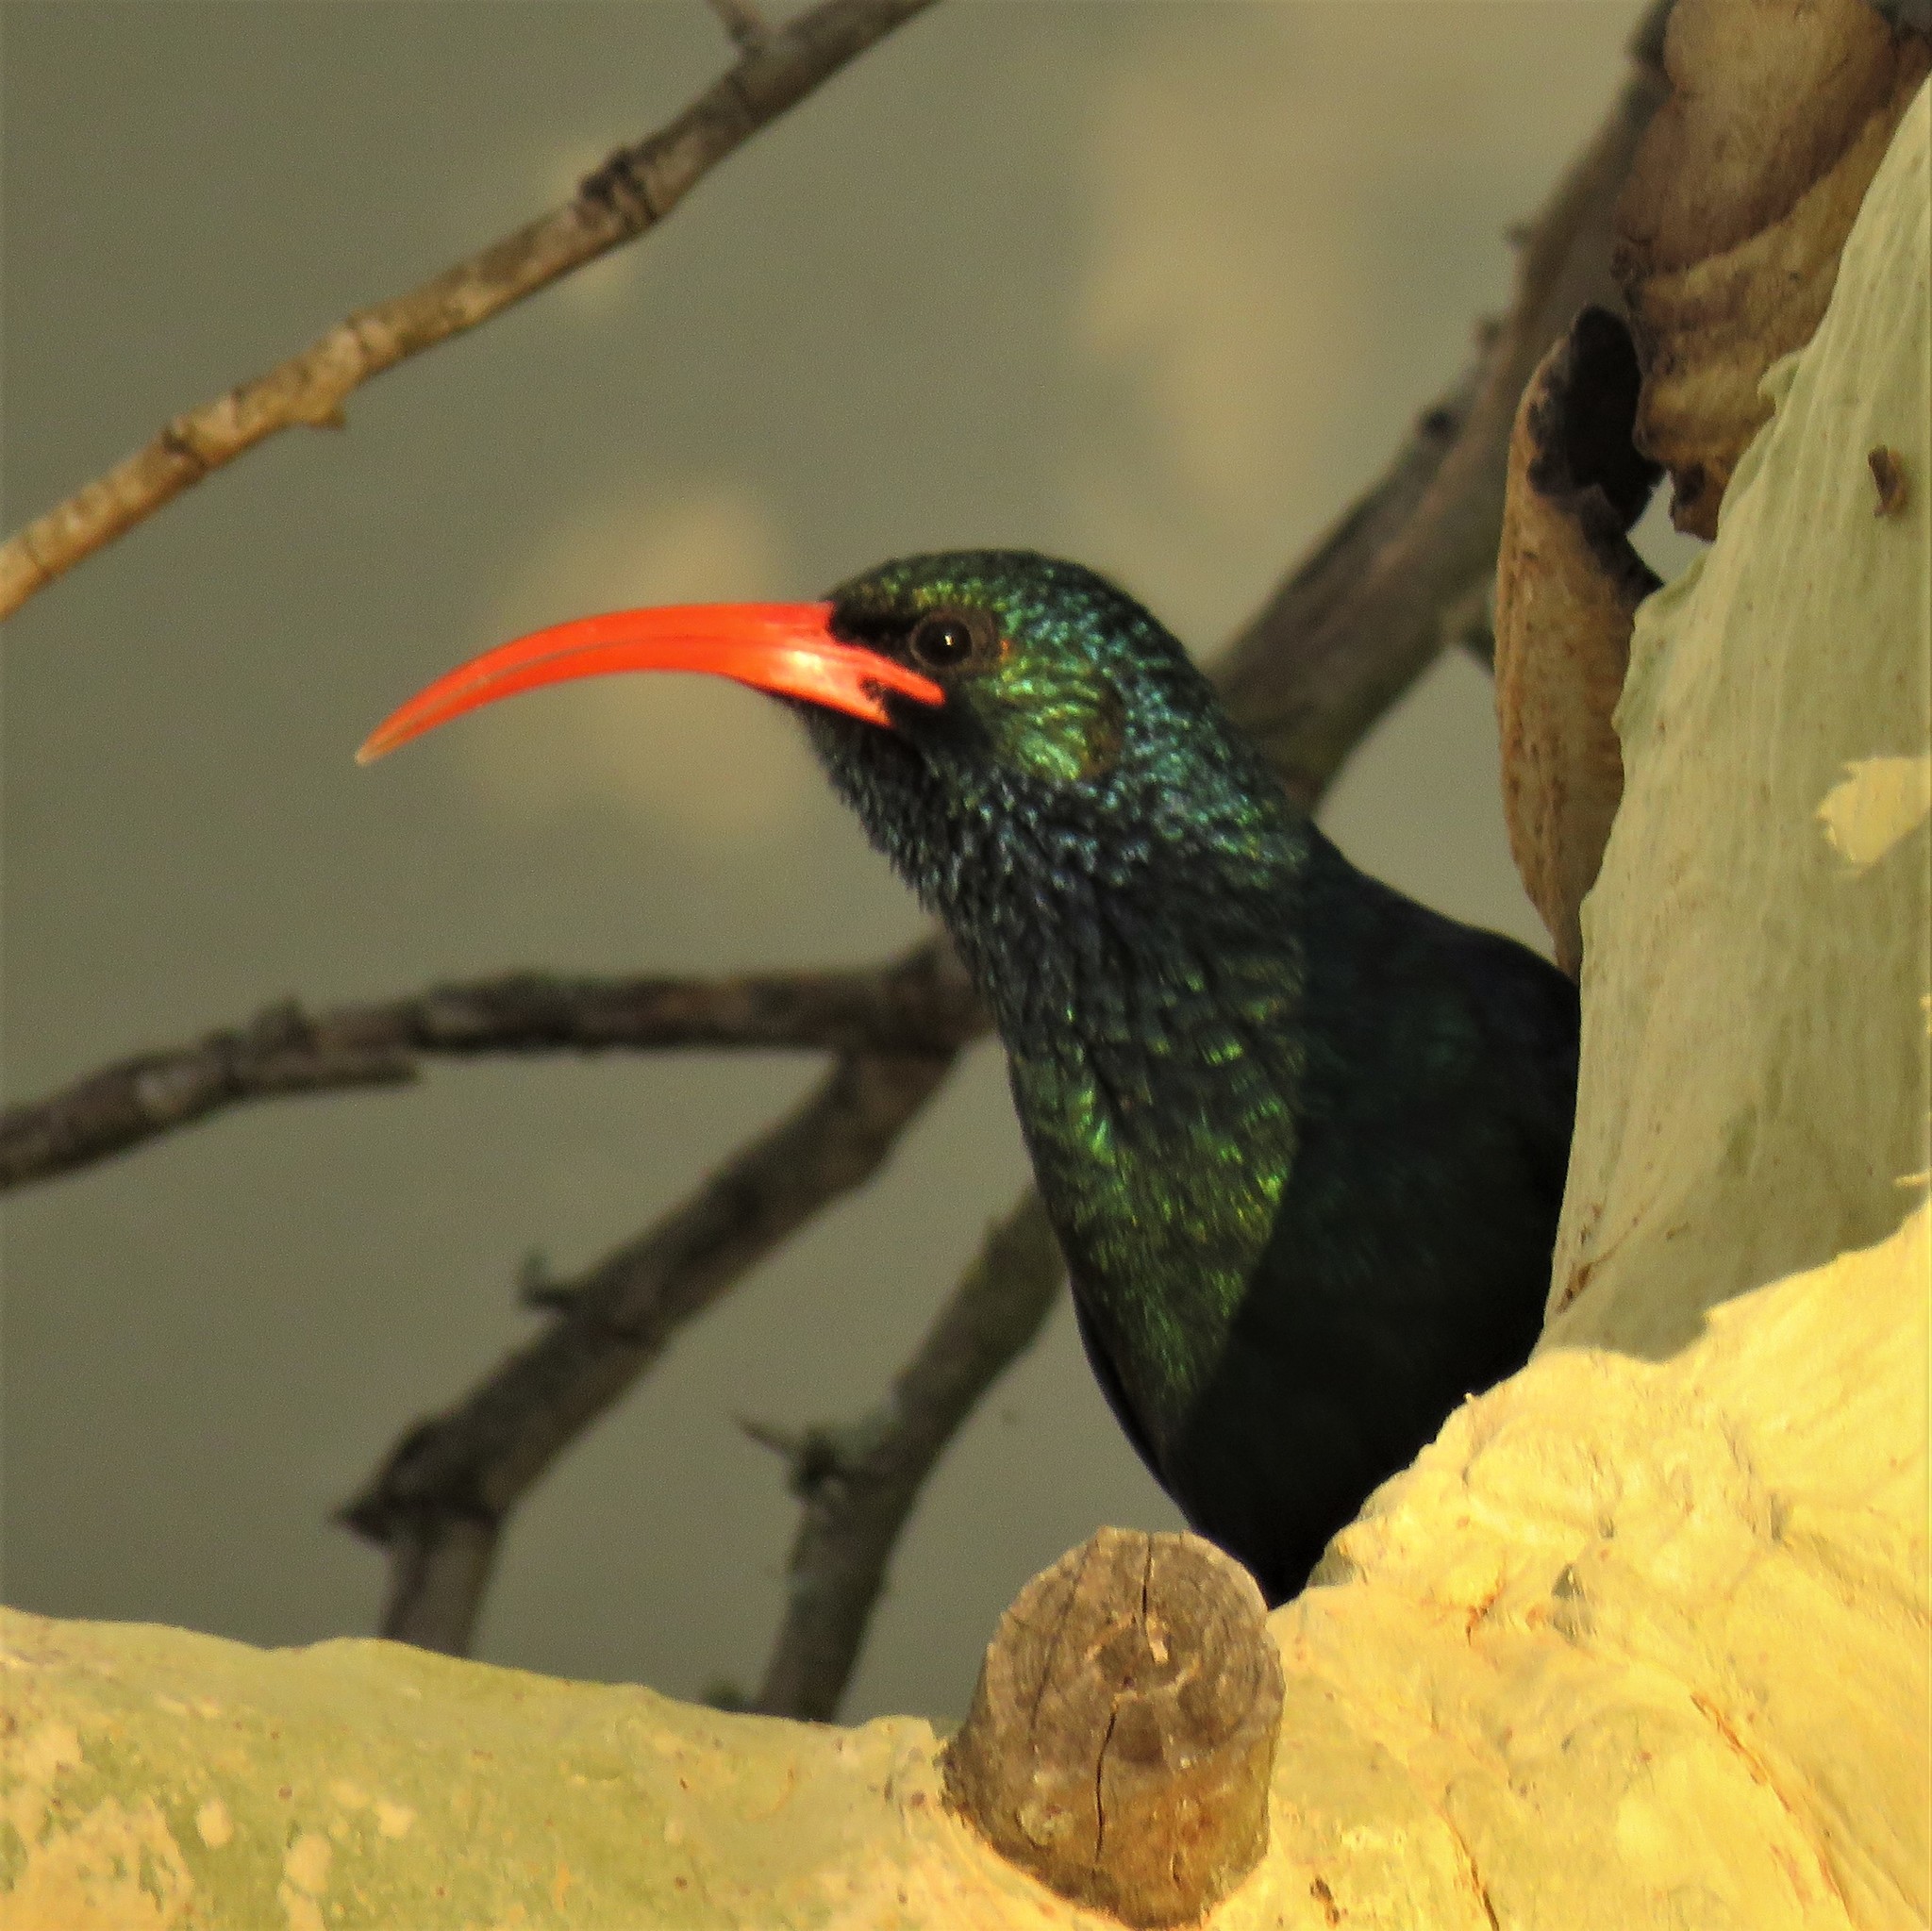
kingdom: Animalia
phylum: Chordata
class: Aves
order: Bucerotiformes
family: Phoeniculidae
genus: Phoeniculus
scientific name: Phoeniculus purpureus
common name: Green woodhoopoe
